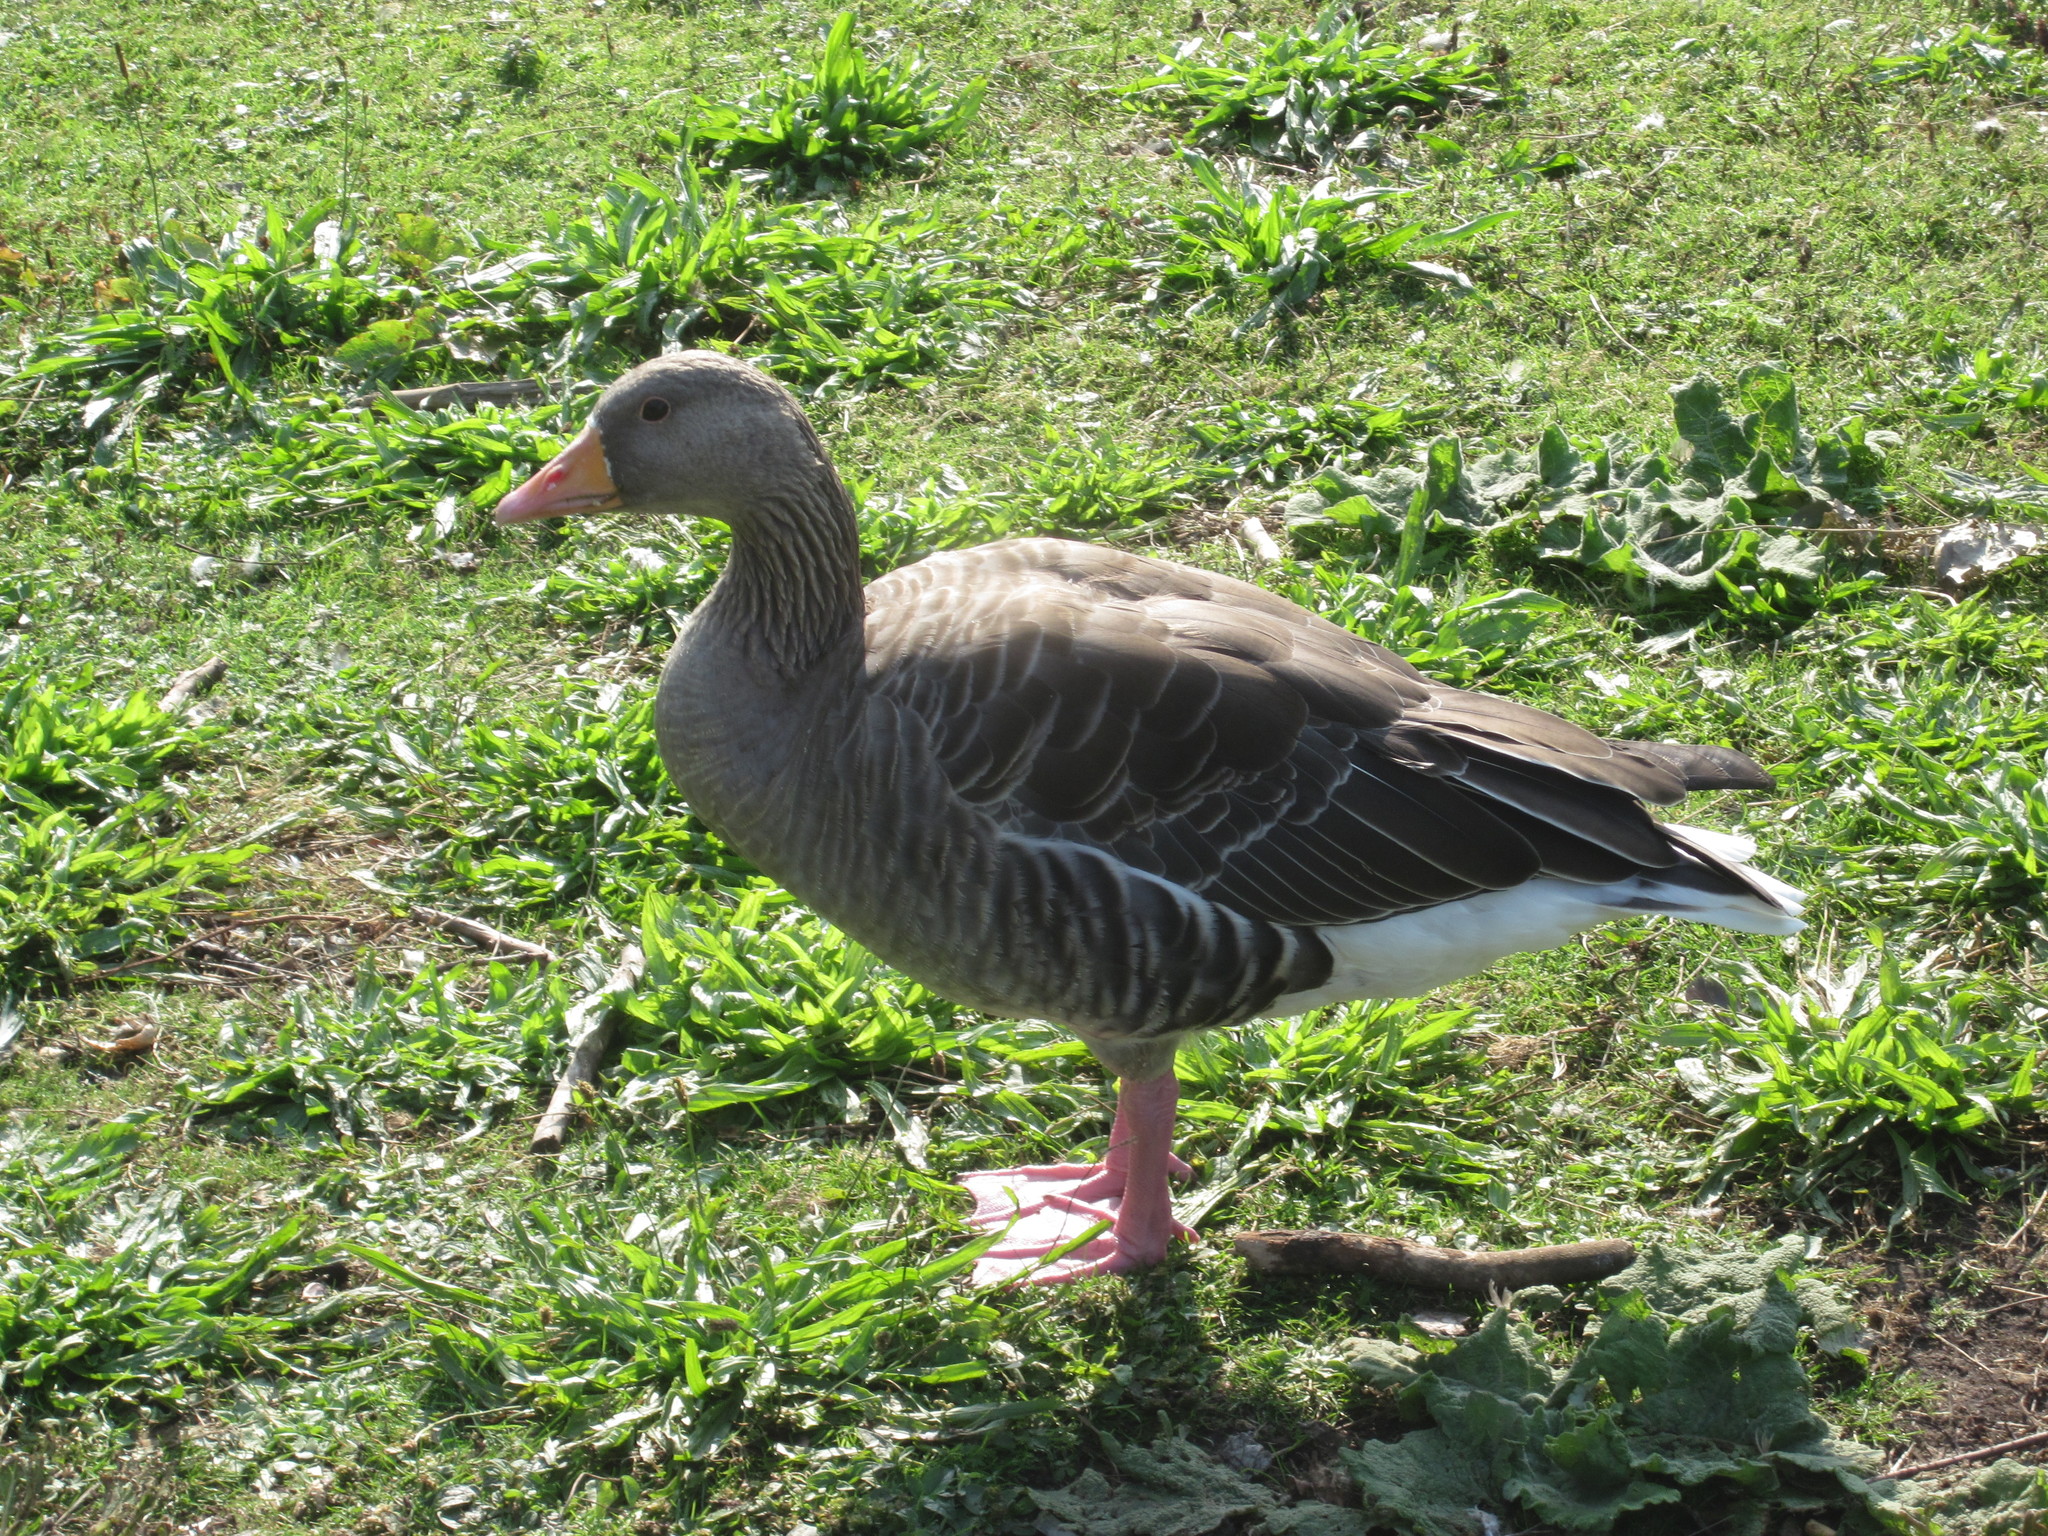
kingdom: Animalia
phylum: Chordata
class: Aves
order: Anseriformes
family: Anatidae
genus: Anser
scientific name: Anser anser
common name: Greylag goose
